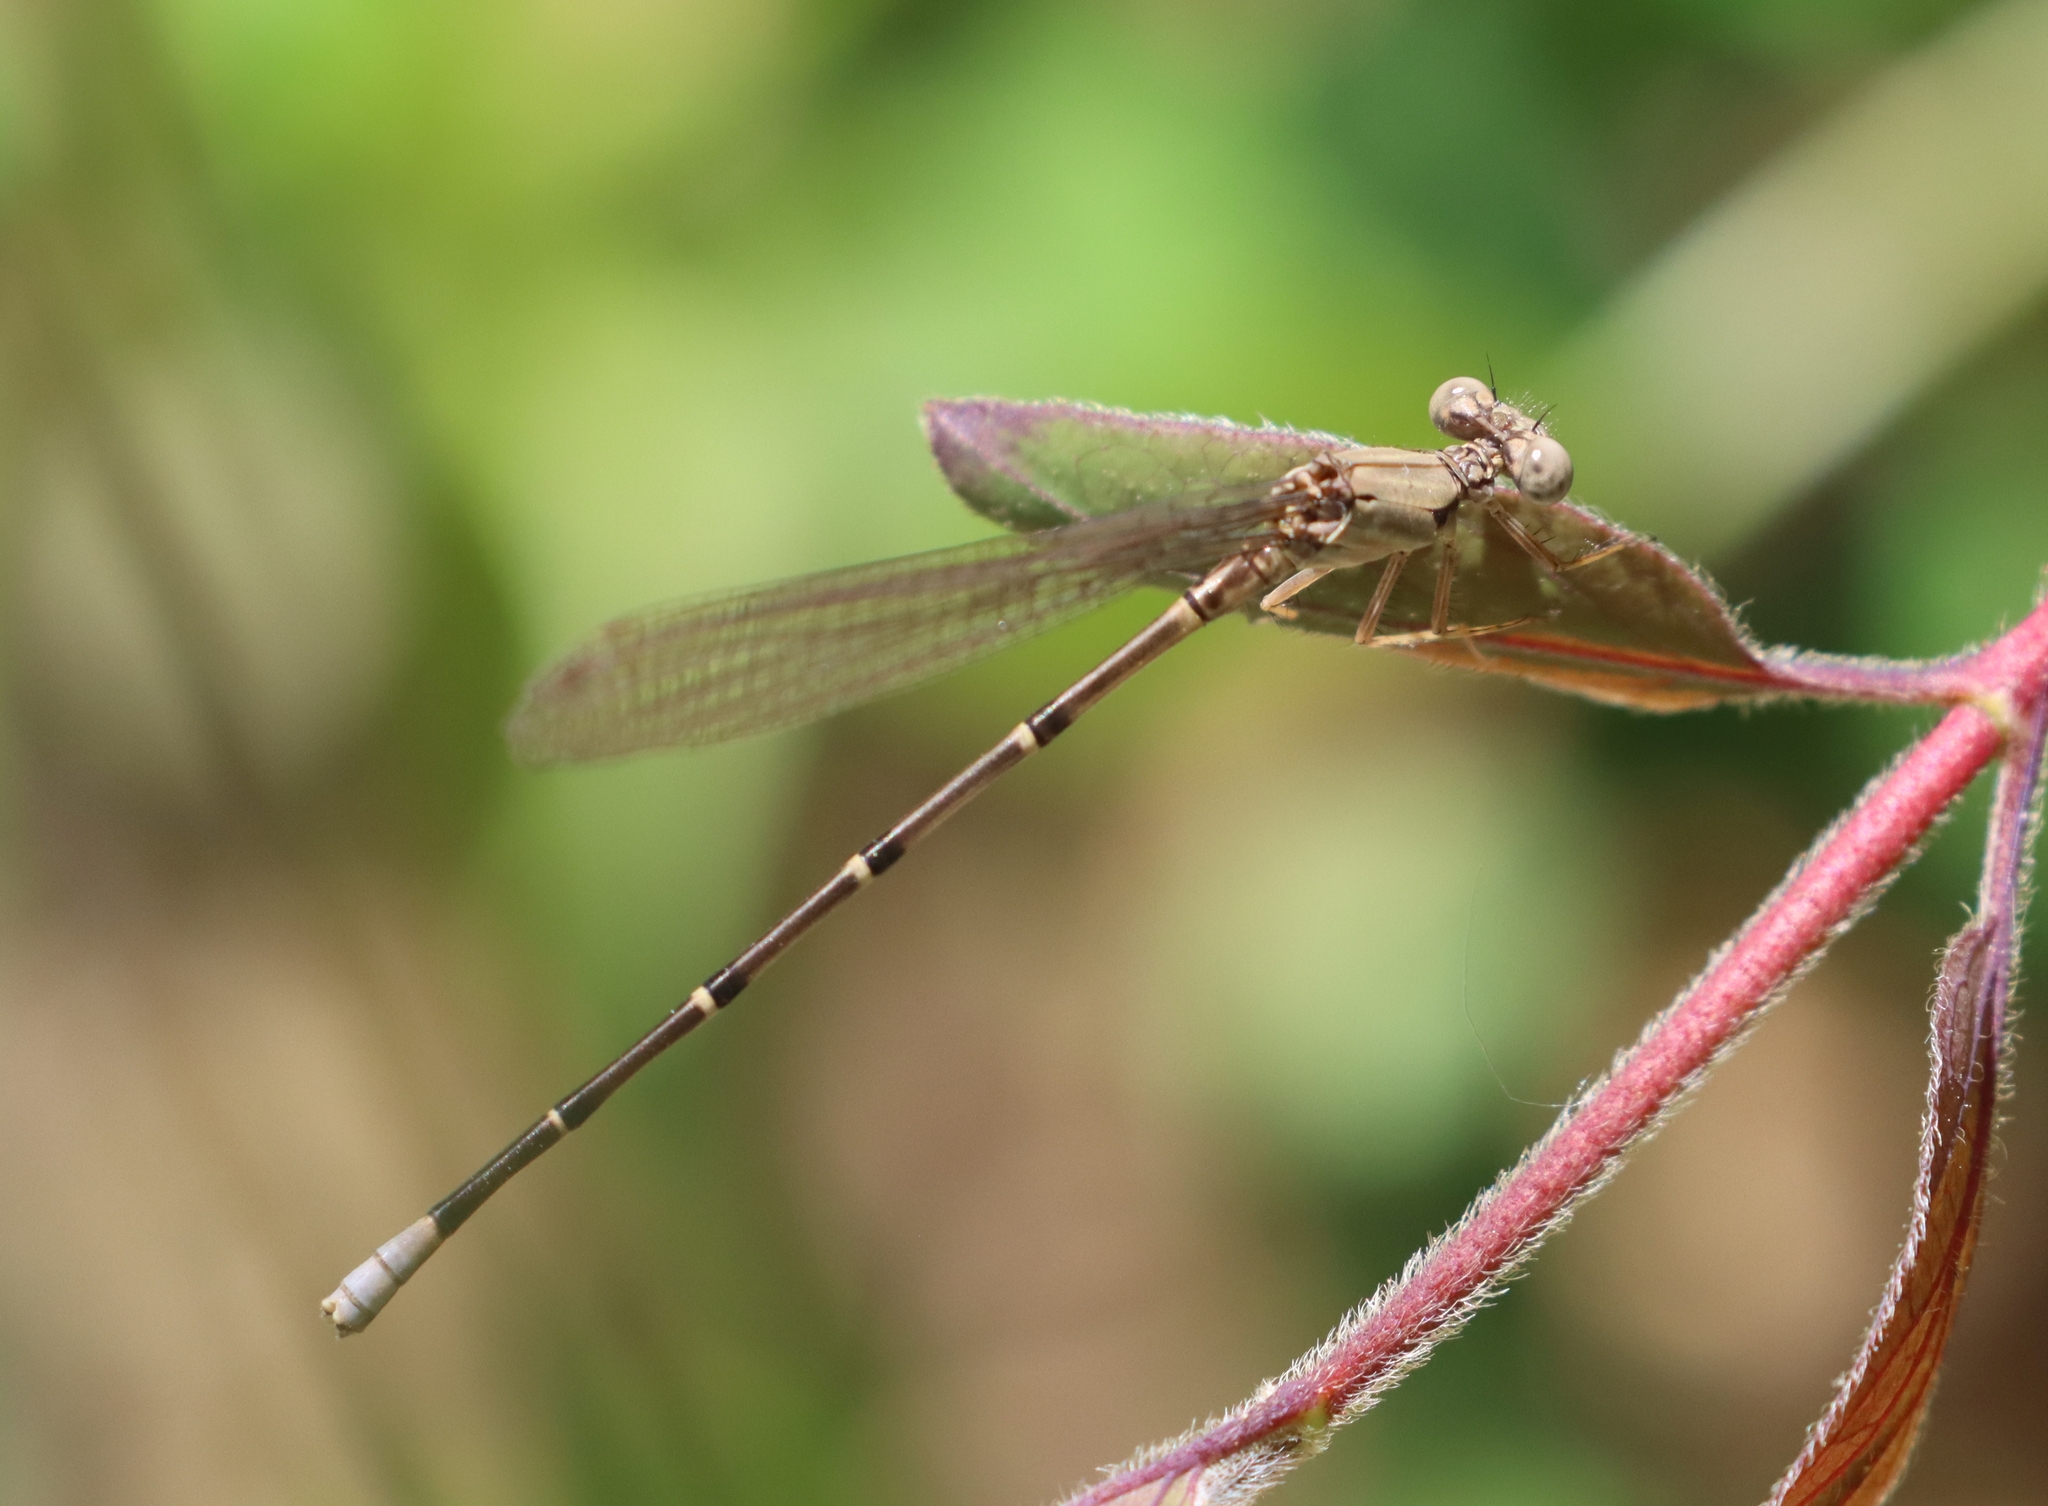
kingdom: Animalia
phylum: Arthropoda
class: Insecta
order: Odonata
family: Coenagrionidae
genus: Argia
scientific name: Argia apicalis
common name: Blue-fronted dancer
